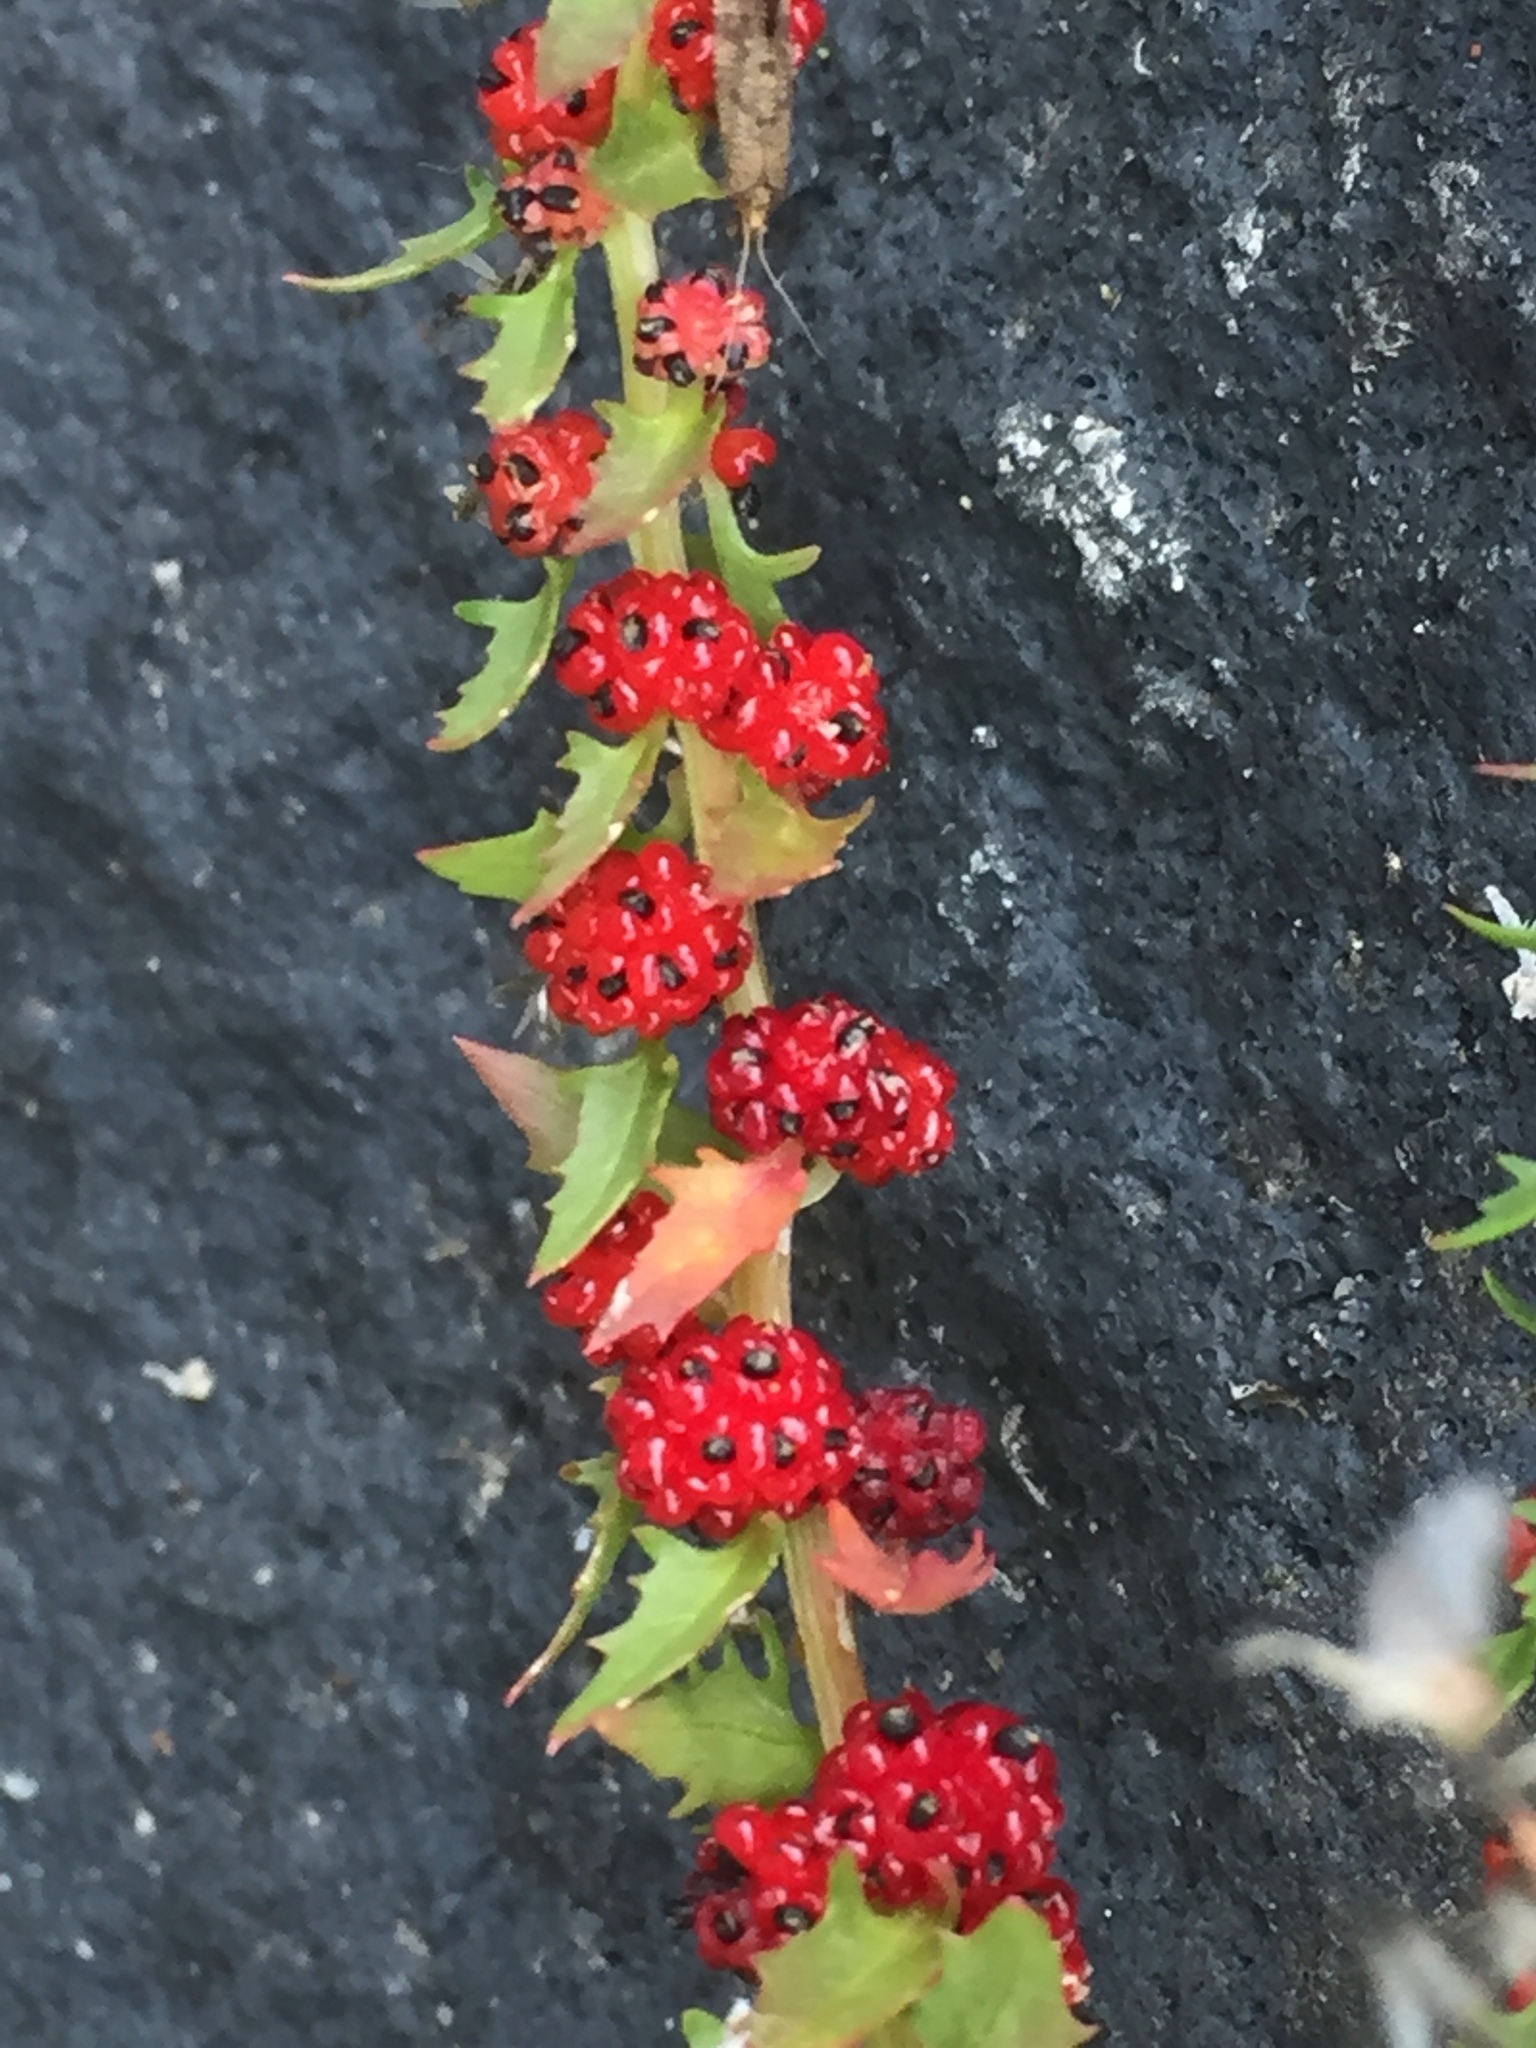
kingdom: Plantae
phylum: Tracheophyta
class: Magnoliopsida
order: Caryophyllales
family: Amaranthaceae
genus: Blitum
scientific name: Blitum capitatum
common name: Strawberry-blight
